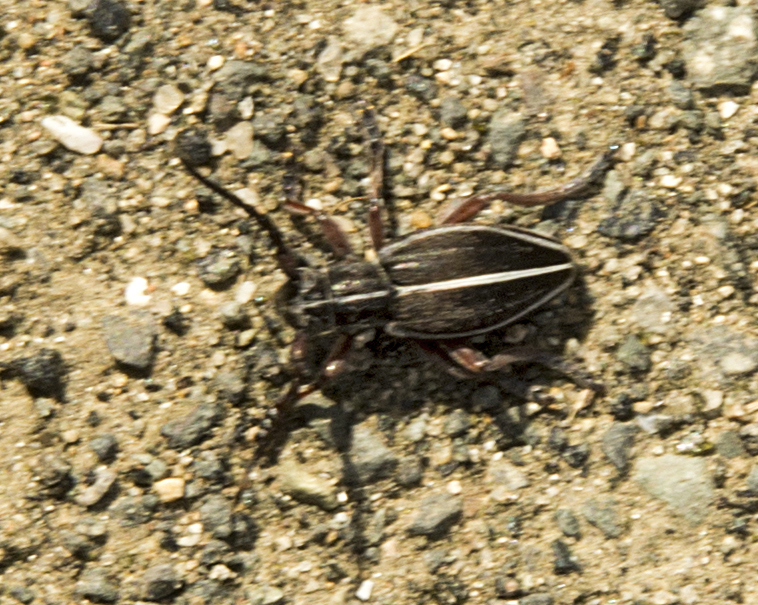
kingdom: Animalia
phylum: Arthropoda
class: Insecta
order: Coleoptera
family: Cerambycidae
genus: Dorcadion
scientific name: Dorcadion tauricum
